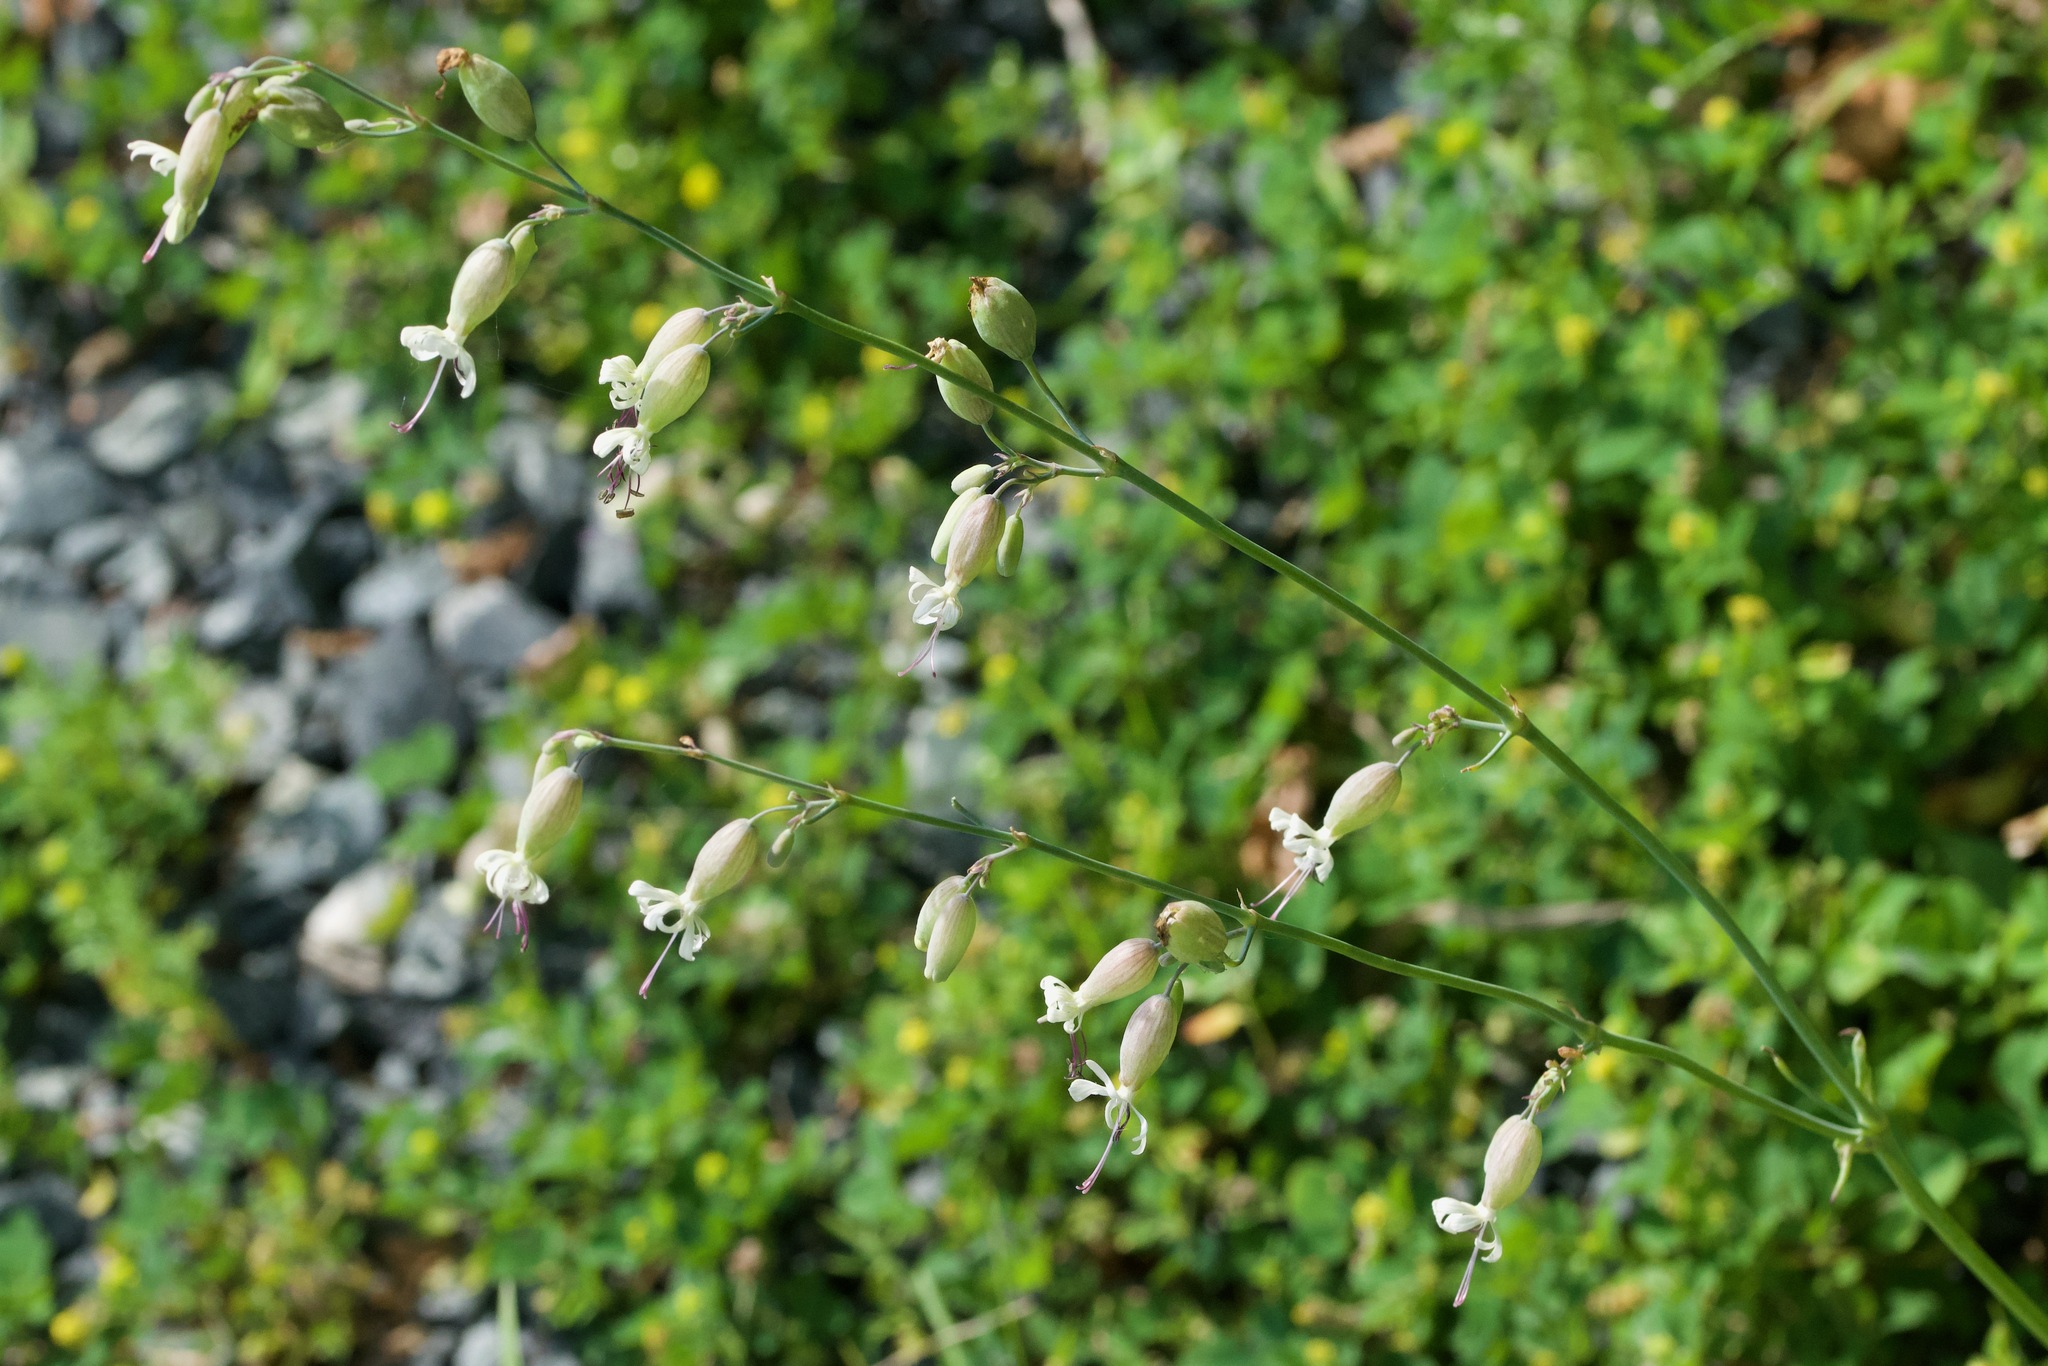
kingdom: Plantae
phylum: Tracheophyta
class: Magnoliopsida
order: Caryophyllales
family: Caryophyllaceae
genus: Silene
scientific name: Silene csereii
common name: Balkan catchfly
